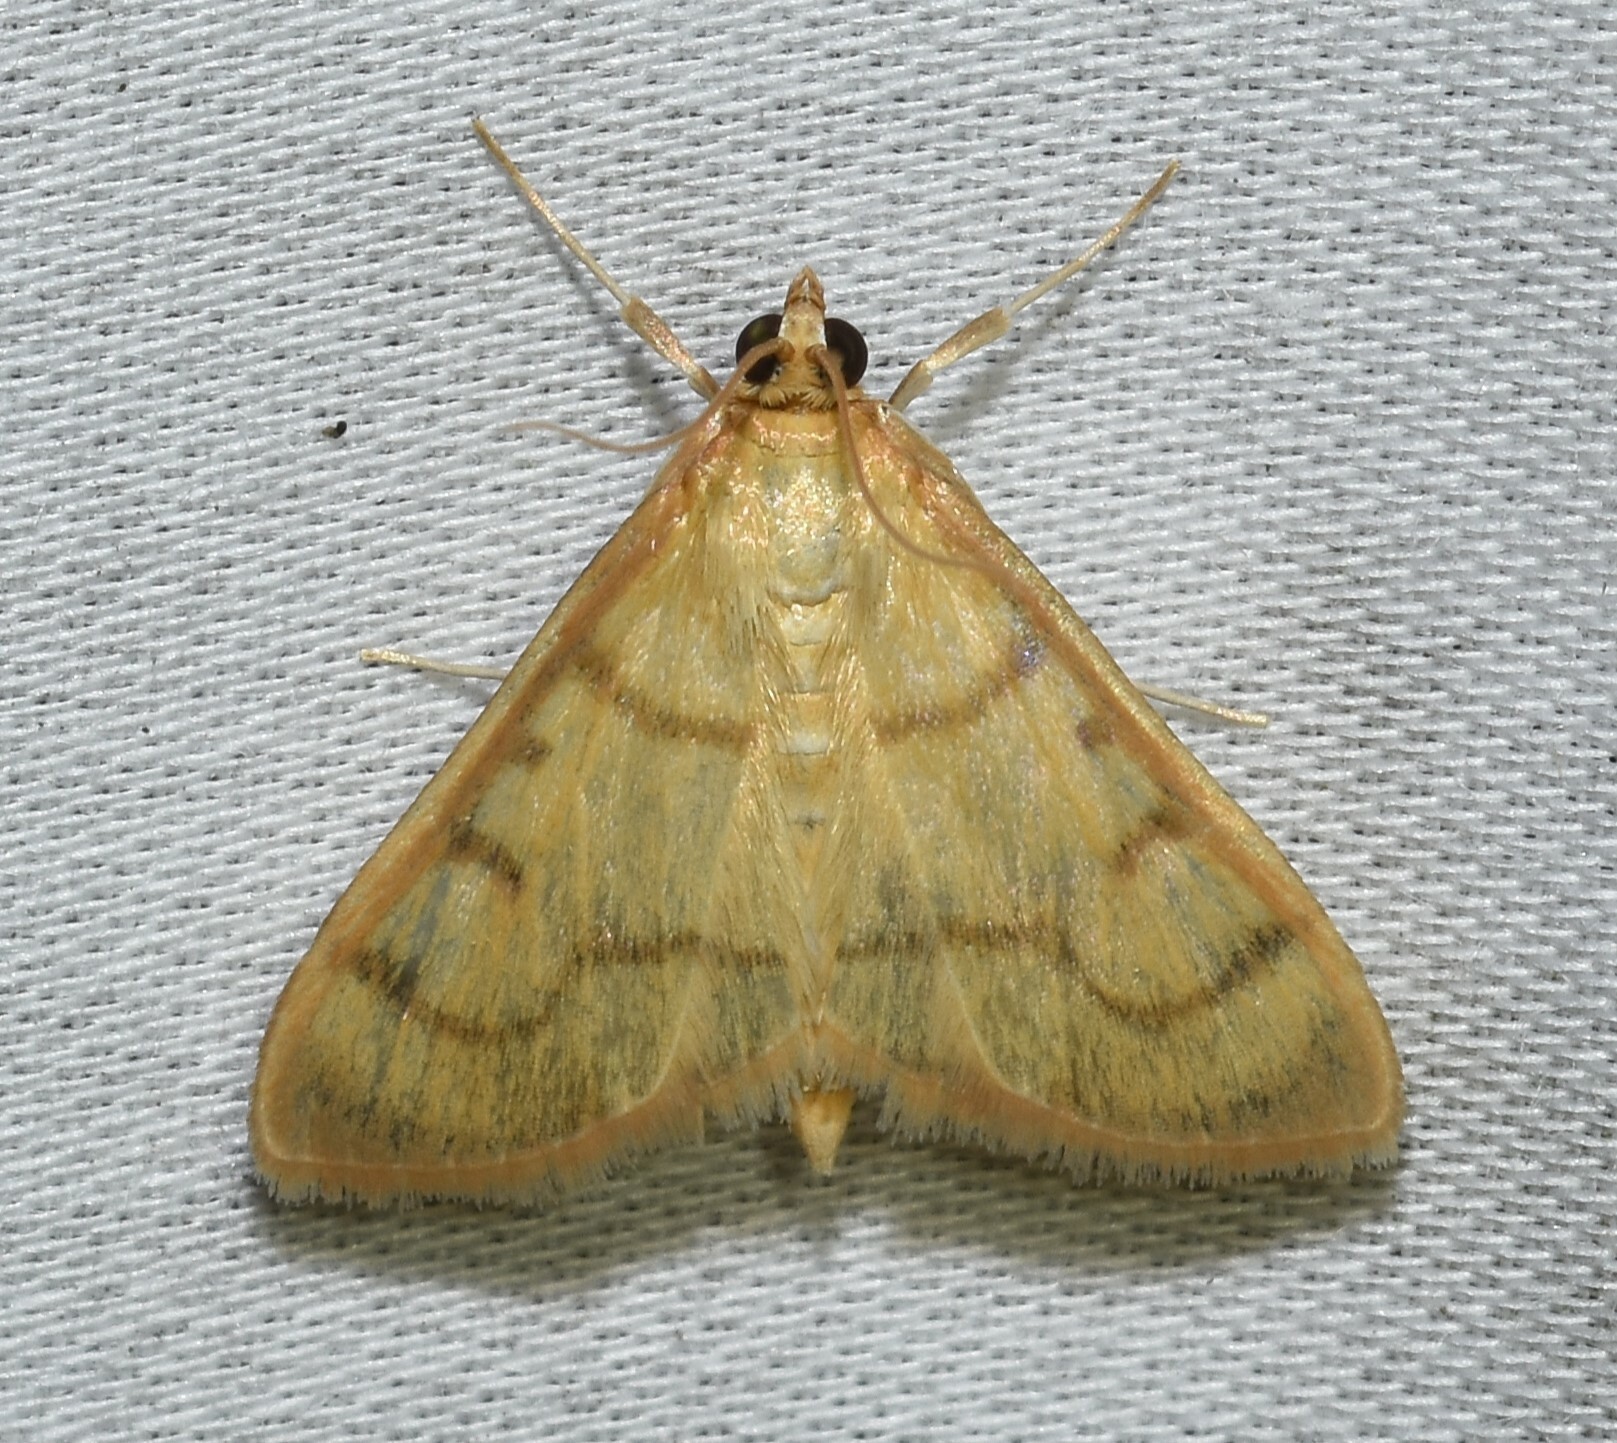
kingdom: Animalia
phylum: Arthropoda
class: Insecta
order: Lepidoptera
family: Crambidae
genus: Neohelvibotys
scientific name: Neohelvibotys neohelvialis
